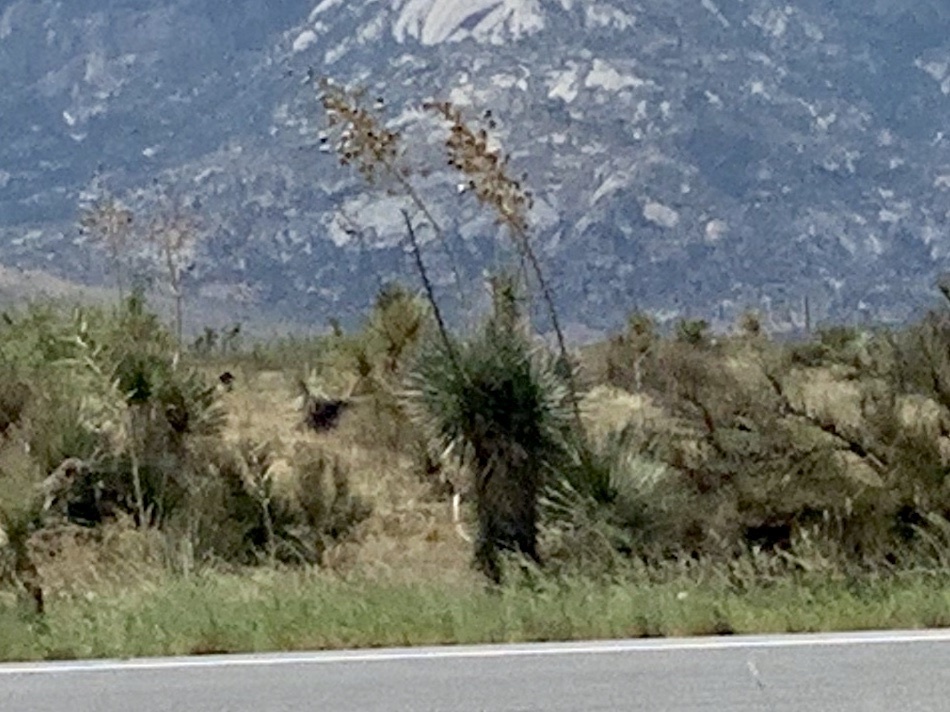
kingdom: Plantae
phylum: Tracheophyta
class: Liliopsida
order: Asparagales
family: Asparagaceae
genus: Yucca
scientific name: Yucca elata
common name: Palmella
